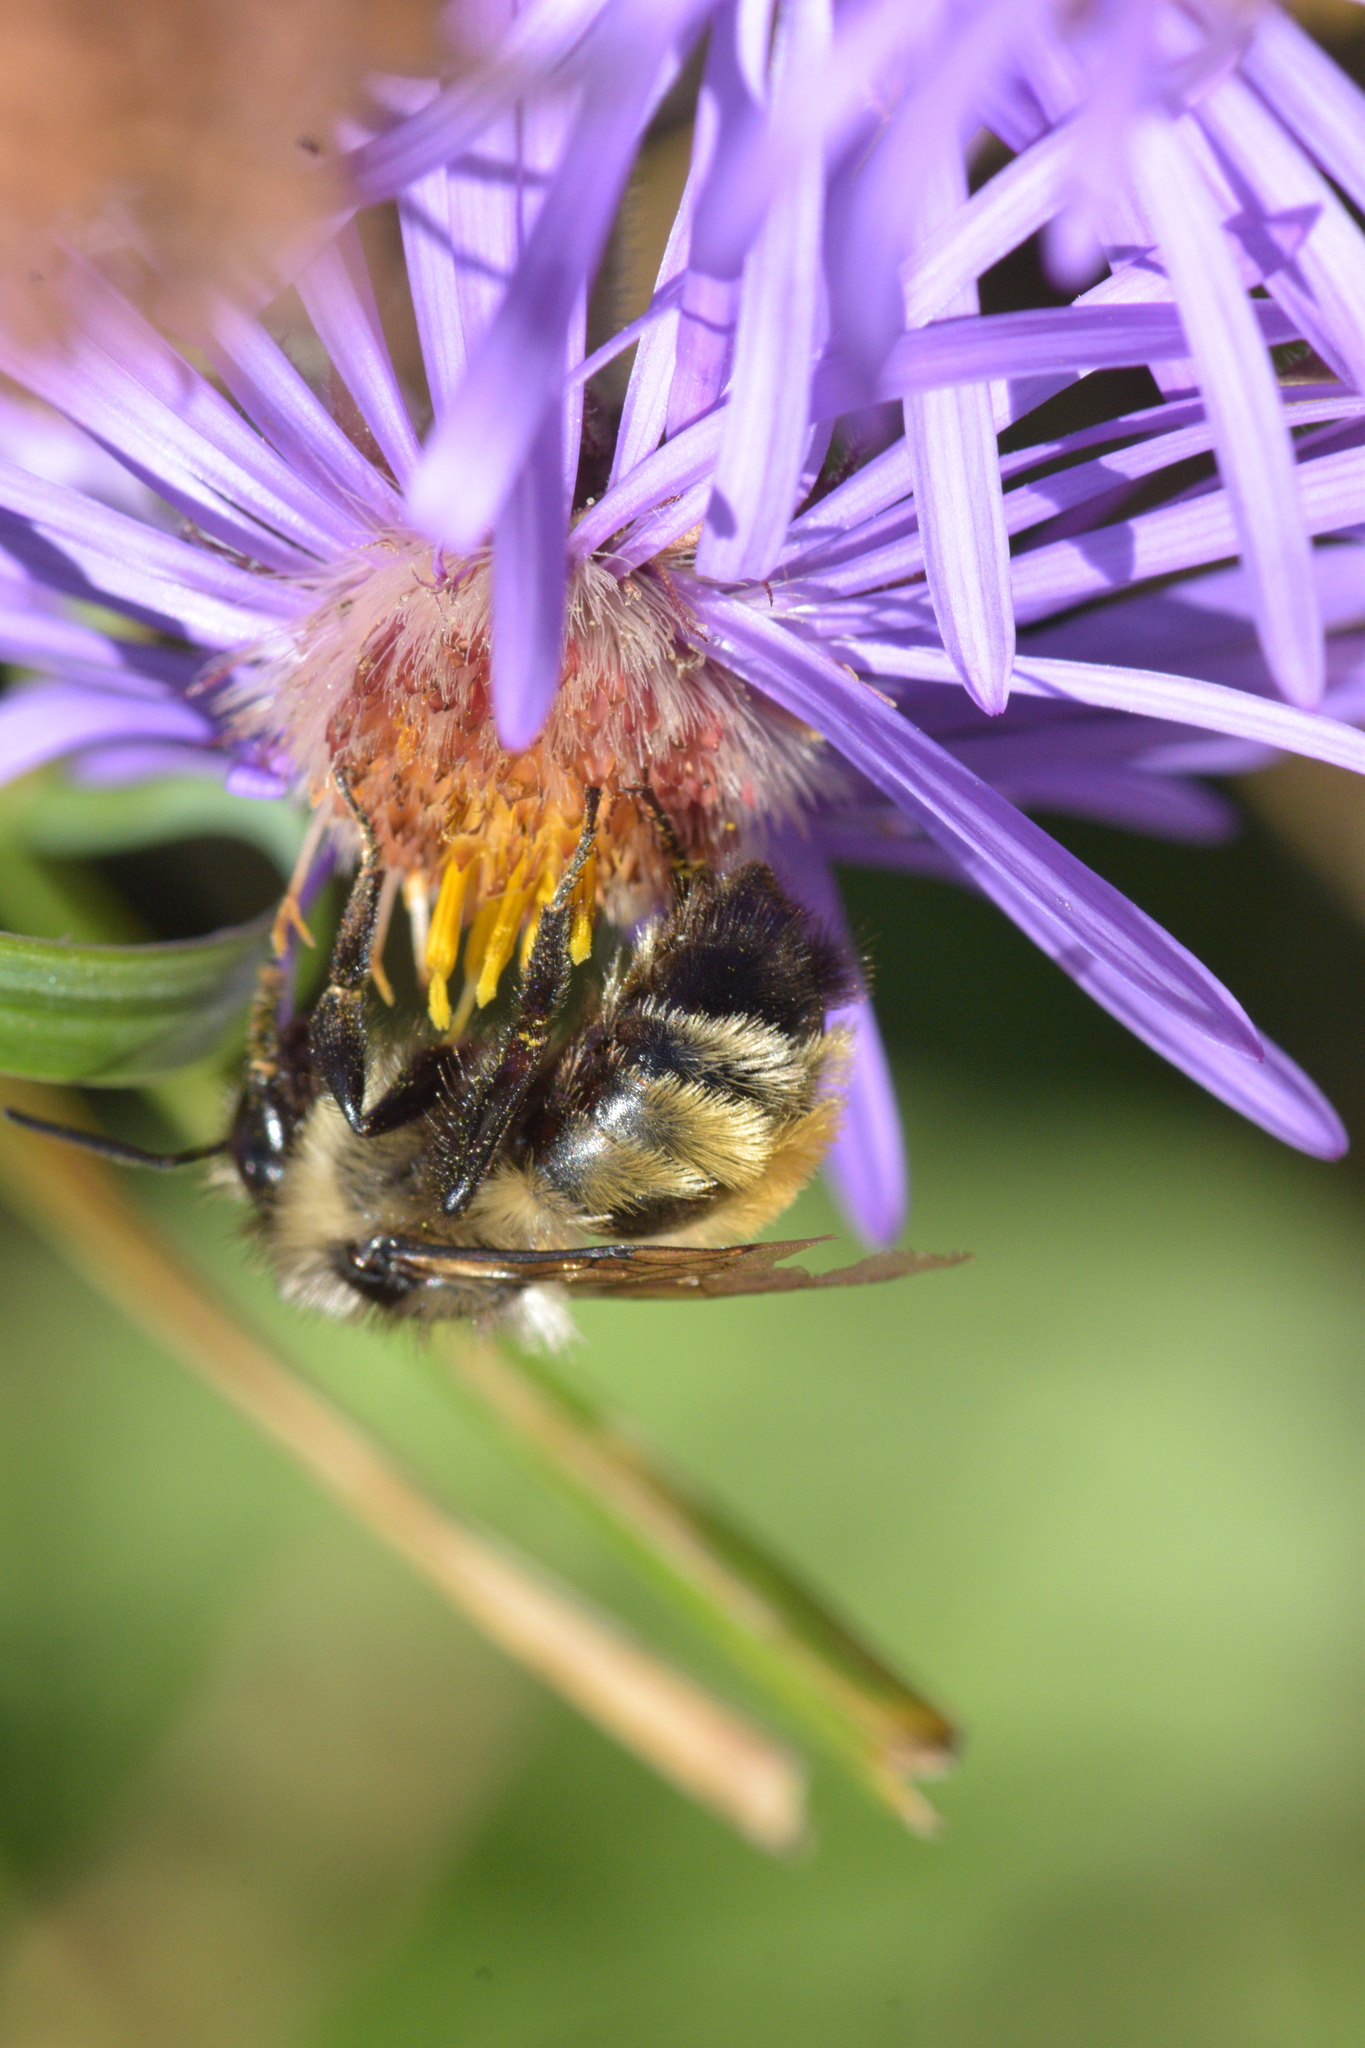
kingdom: Animalia
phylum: Arthropoda
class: Insecta
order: Hymenoptera
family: Apidae
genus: Bombus
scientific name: Bombus ternarius
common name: Tri-colored bumble bee
